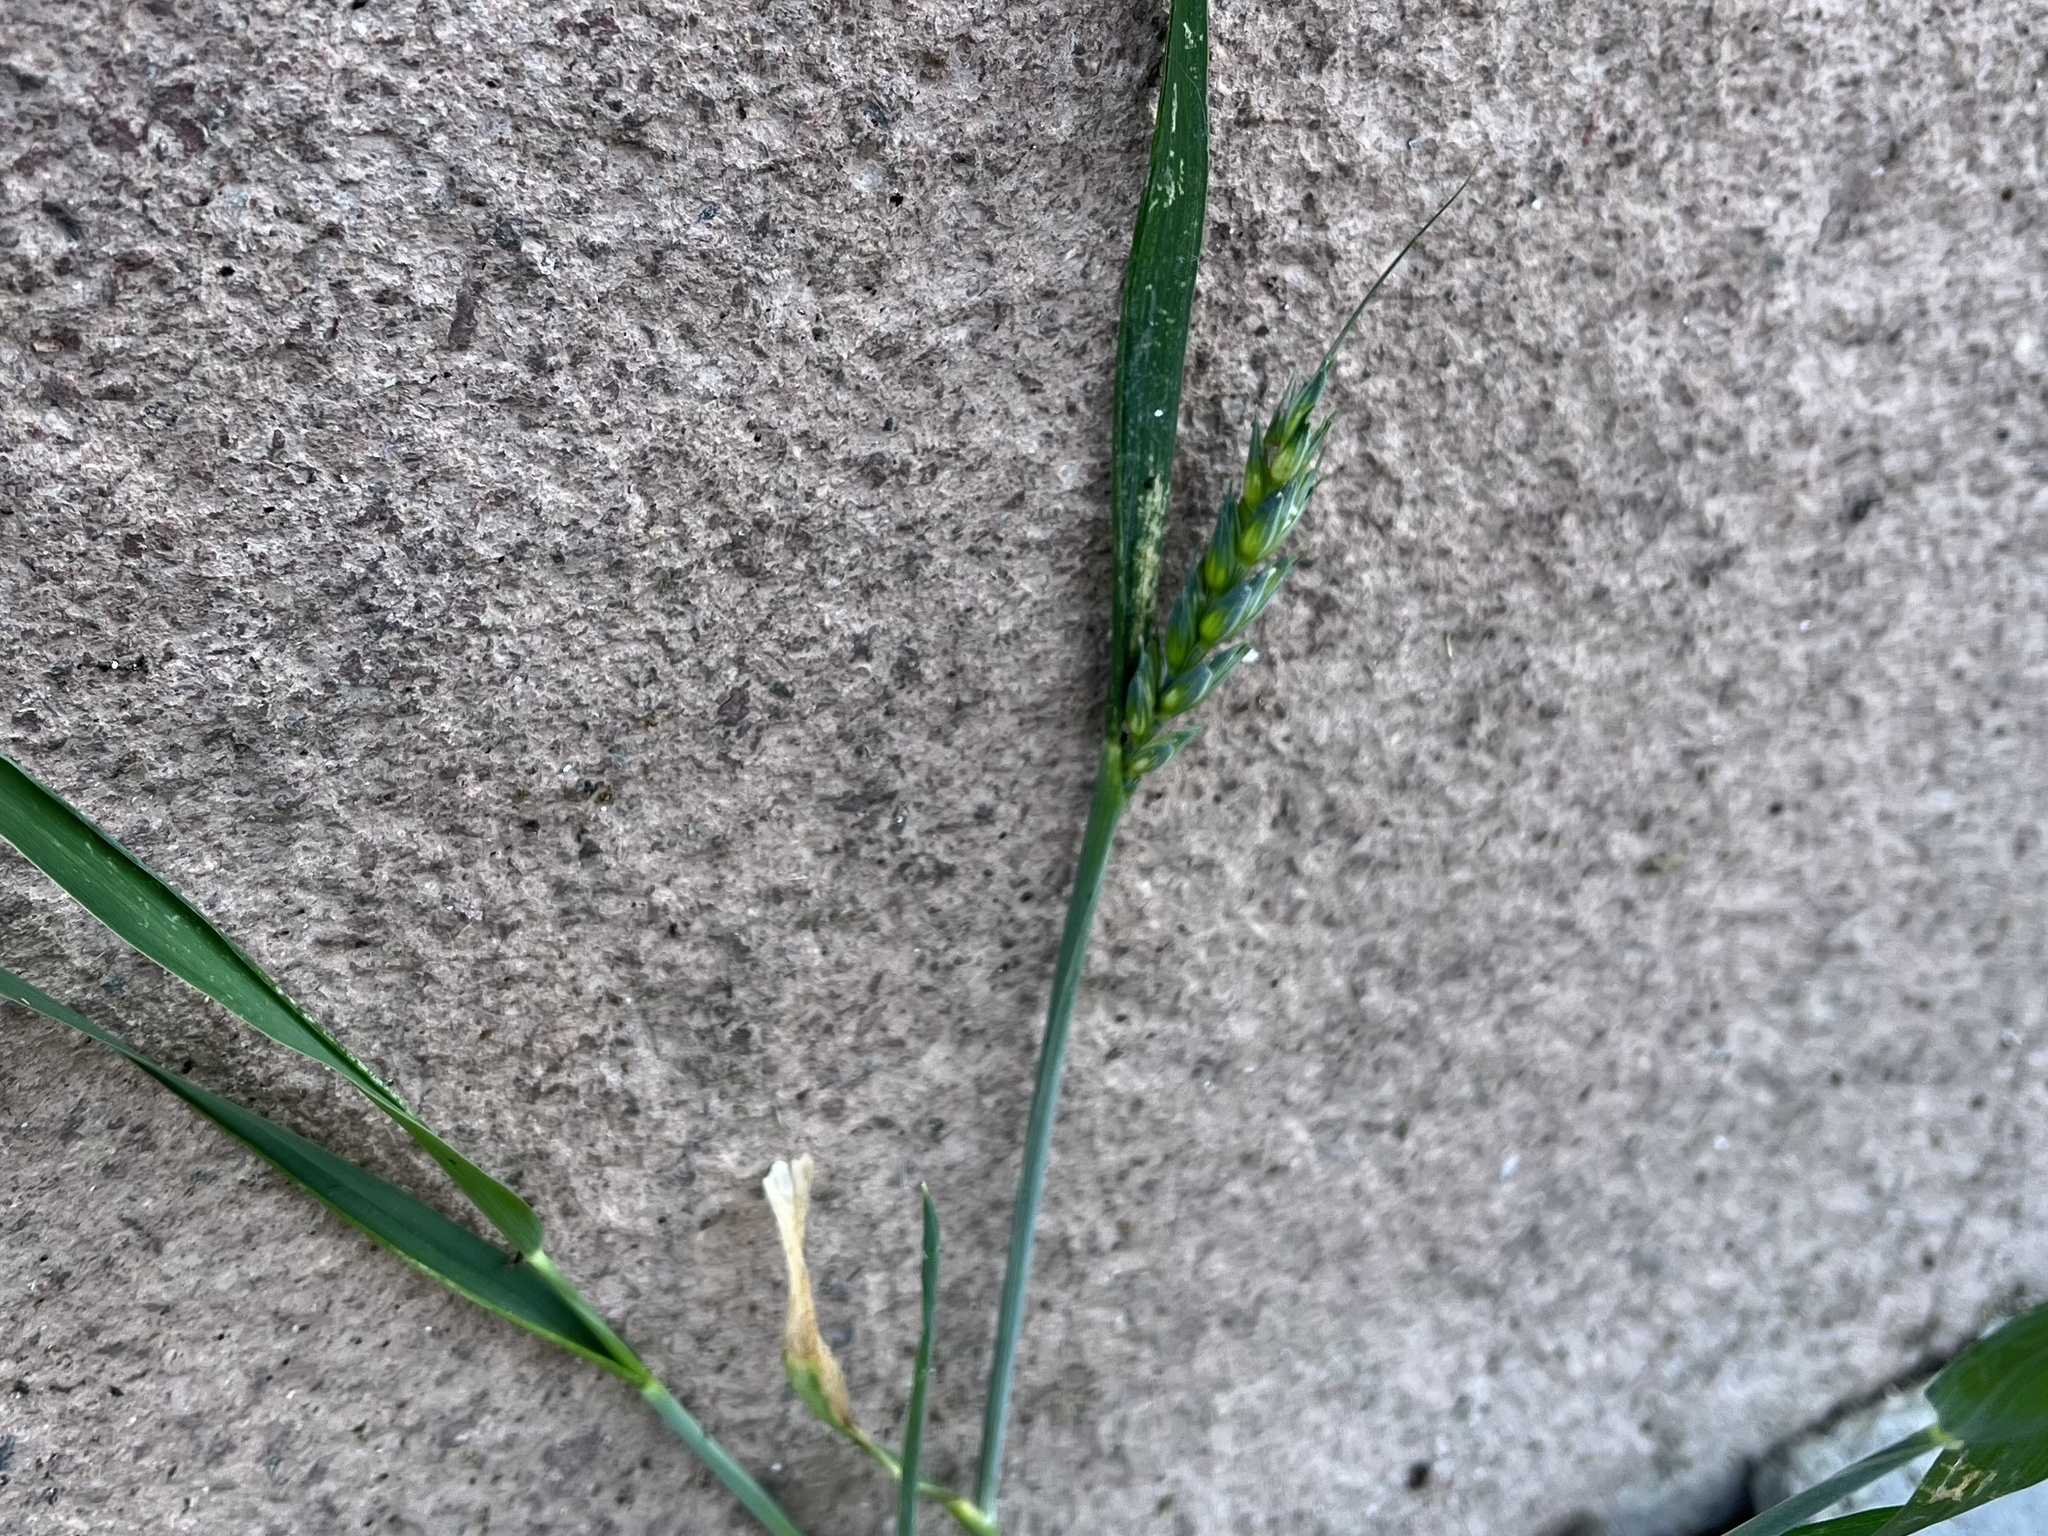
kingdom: Plantae
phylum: Tracheophyta
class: Liliopsida
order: Poales
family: Poaceae
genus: Triticum
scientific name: Triticum aestivum
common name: Common wheat
